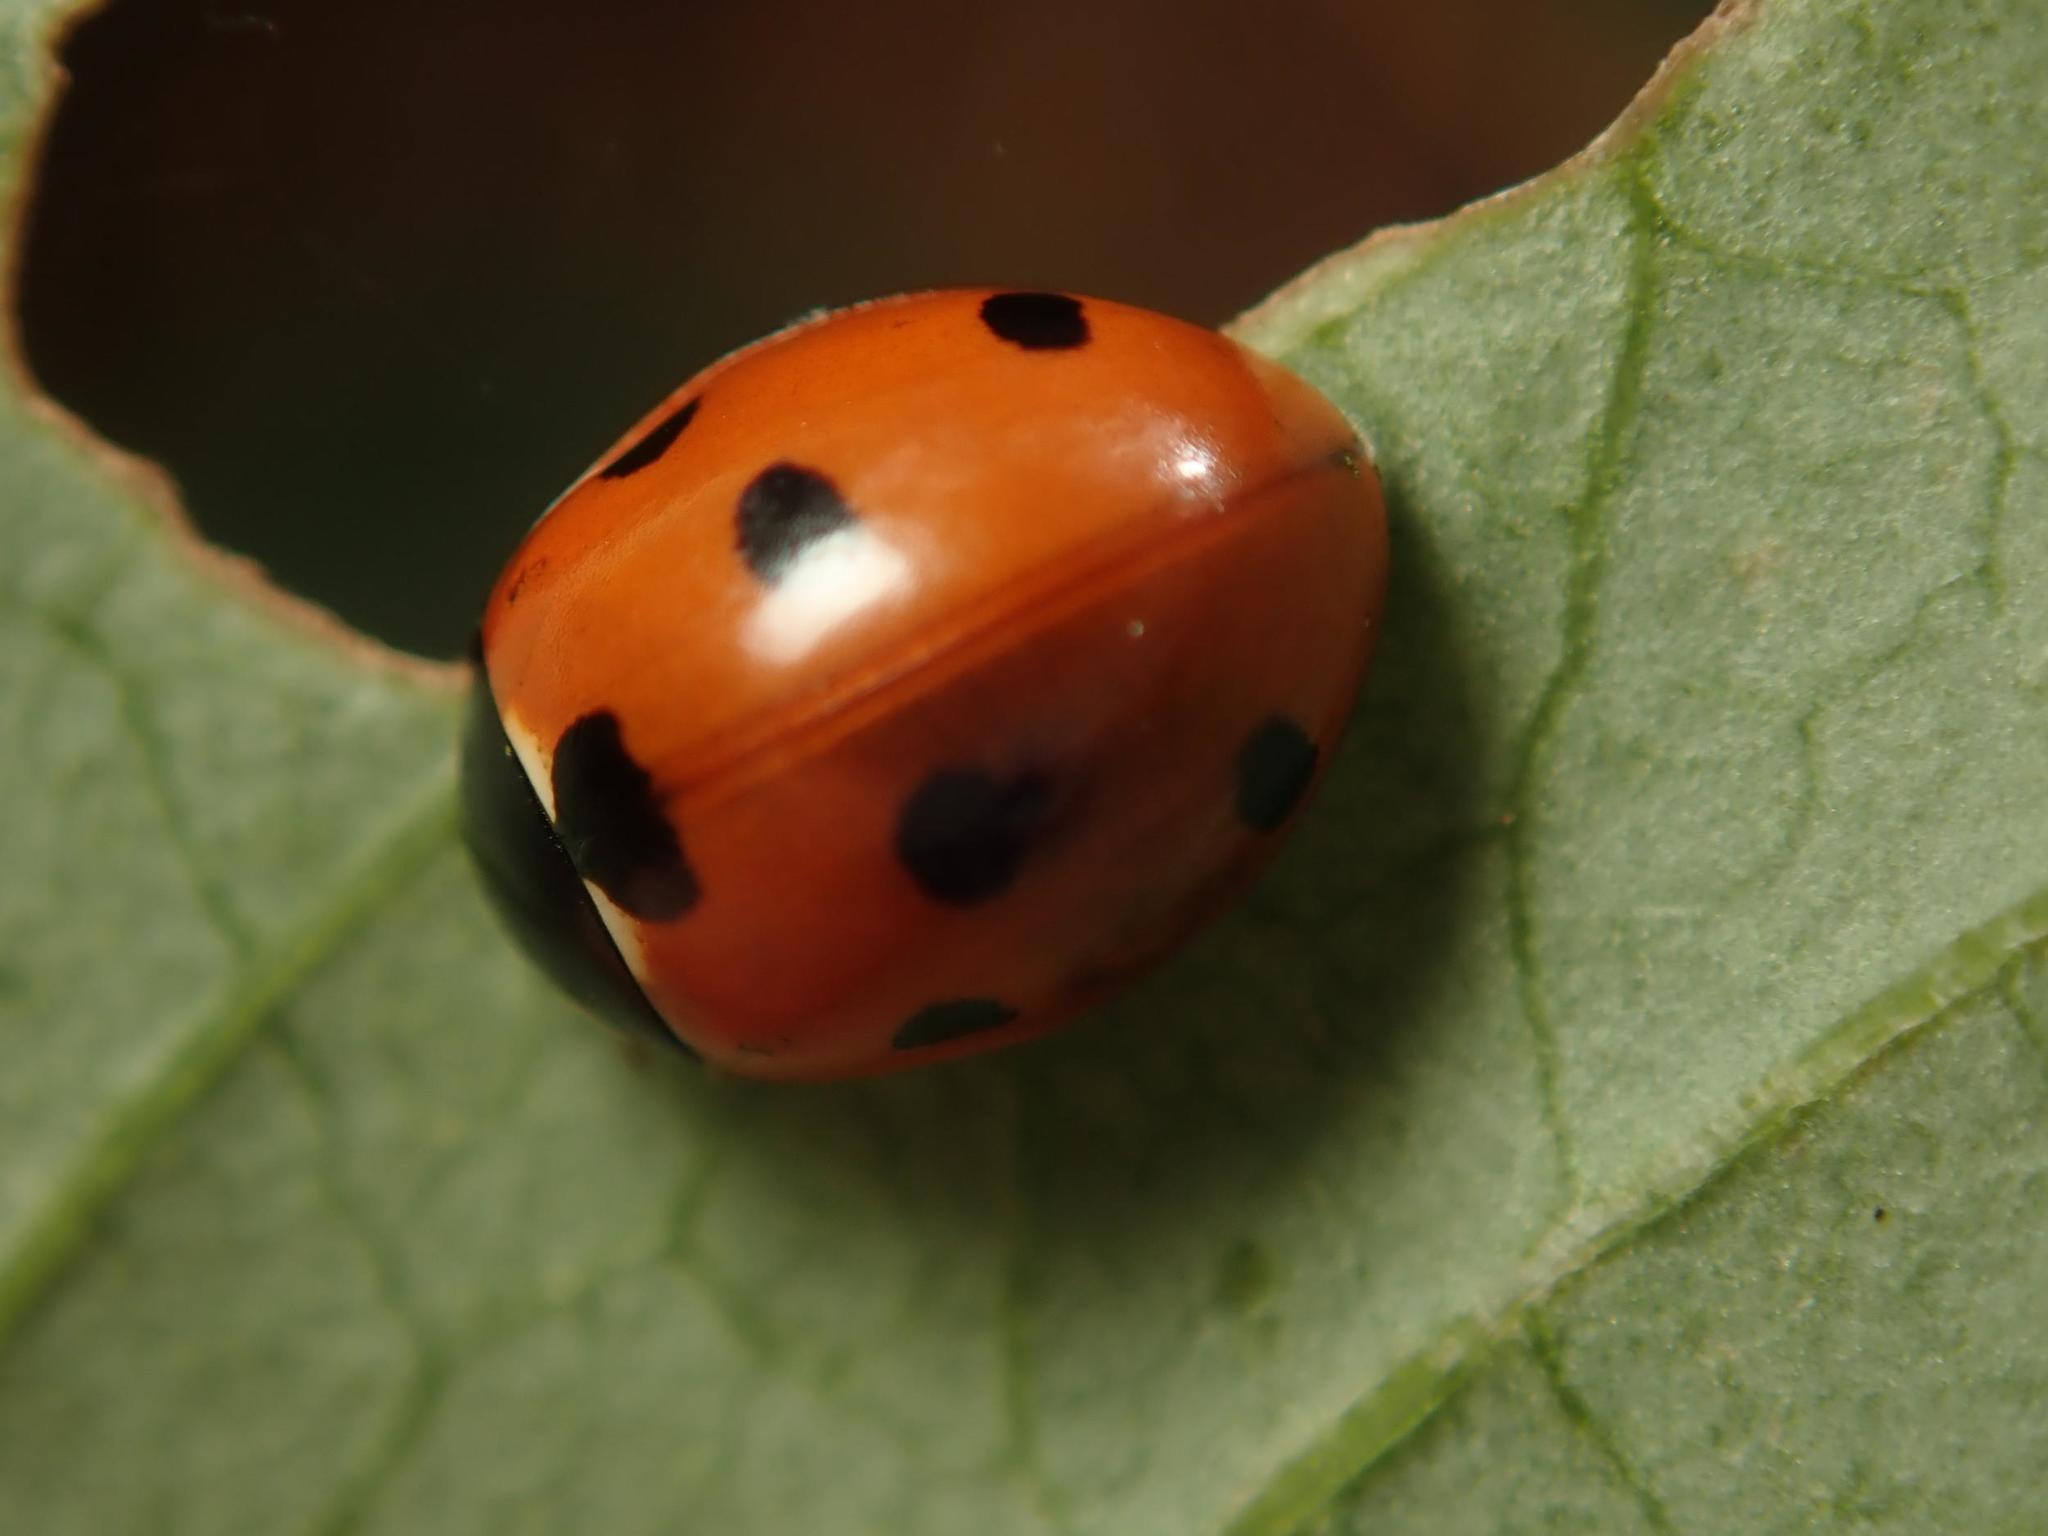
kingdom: Animalia
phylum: Arthropoda
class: Insecta
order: Coleoptera
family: Coccinellidae
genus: Coccinella
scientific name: Coccinella septempunctata
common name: Sevenspotted lady beetle
